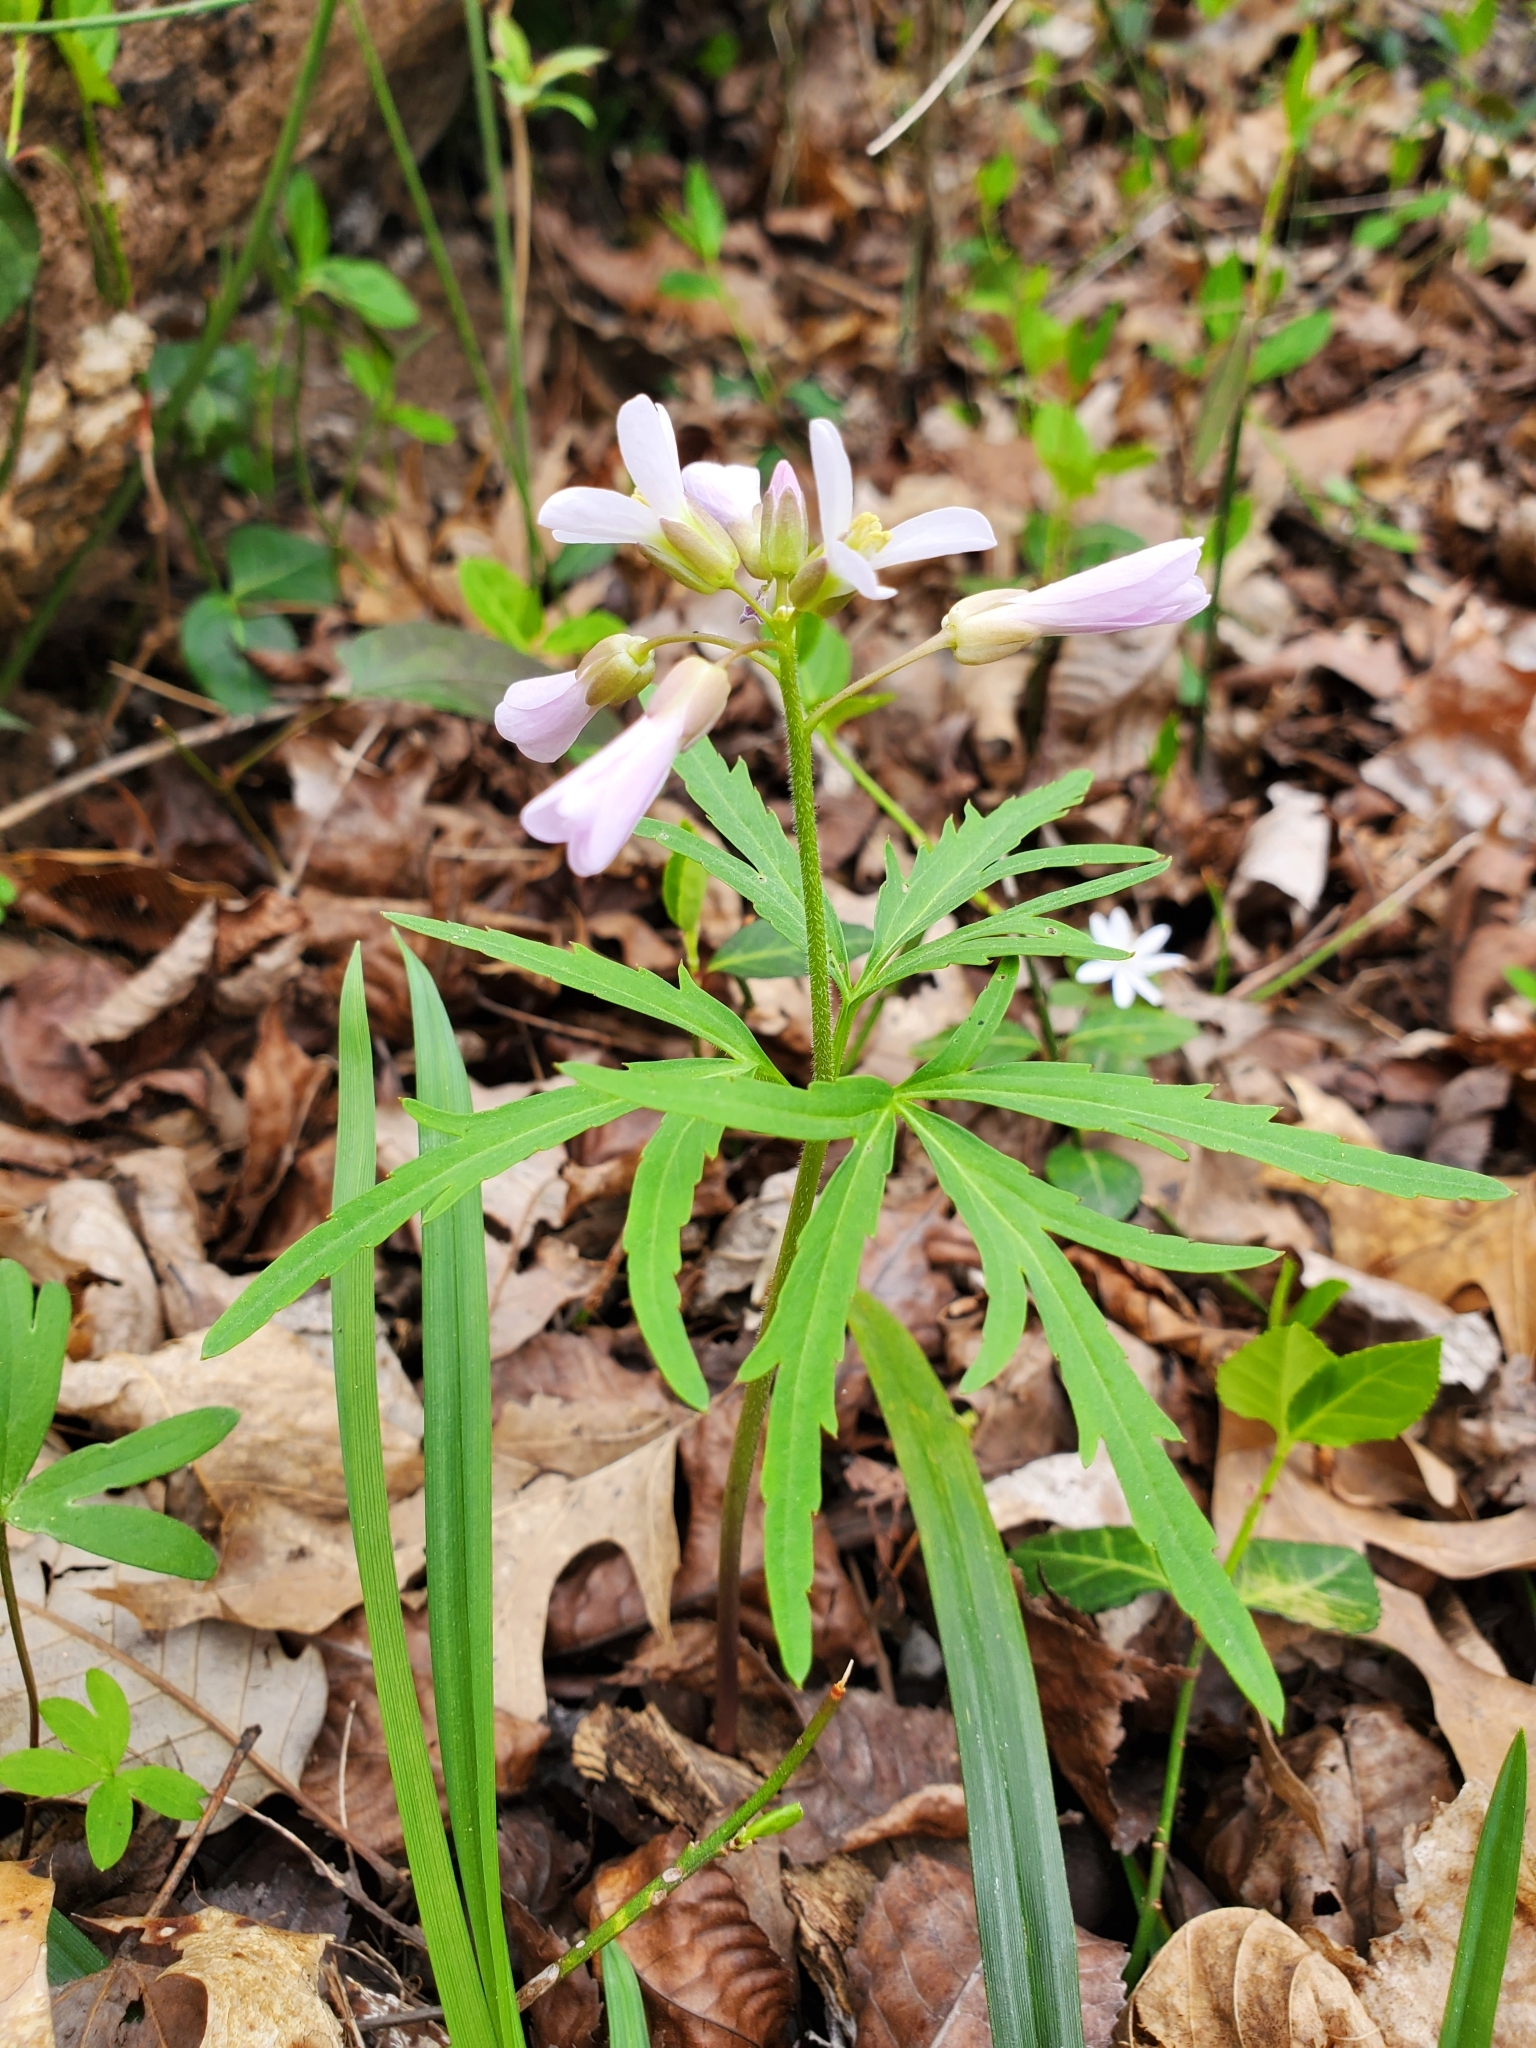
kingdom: Plantae
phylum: Tracheophyta
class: Magnoliopsida
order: Brassicales
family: Brassicaceae
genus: Cardamine
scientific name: Cardamine concatenata
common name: Cut-leaf toothcup
